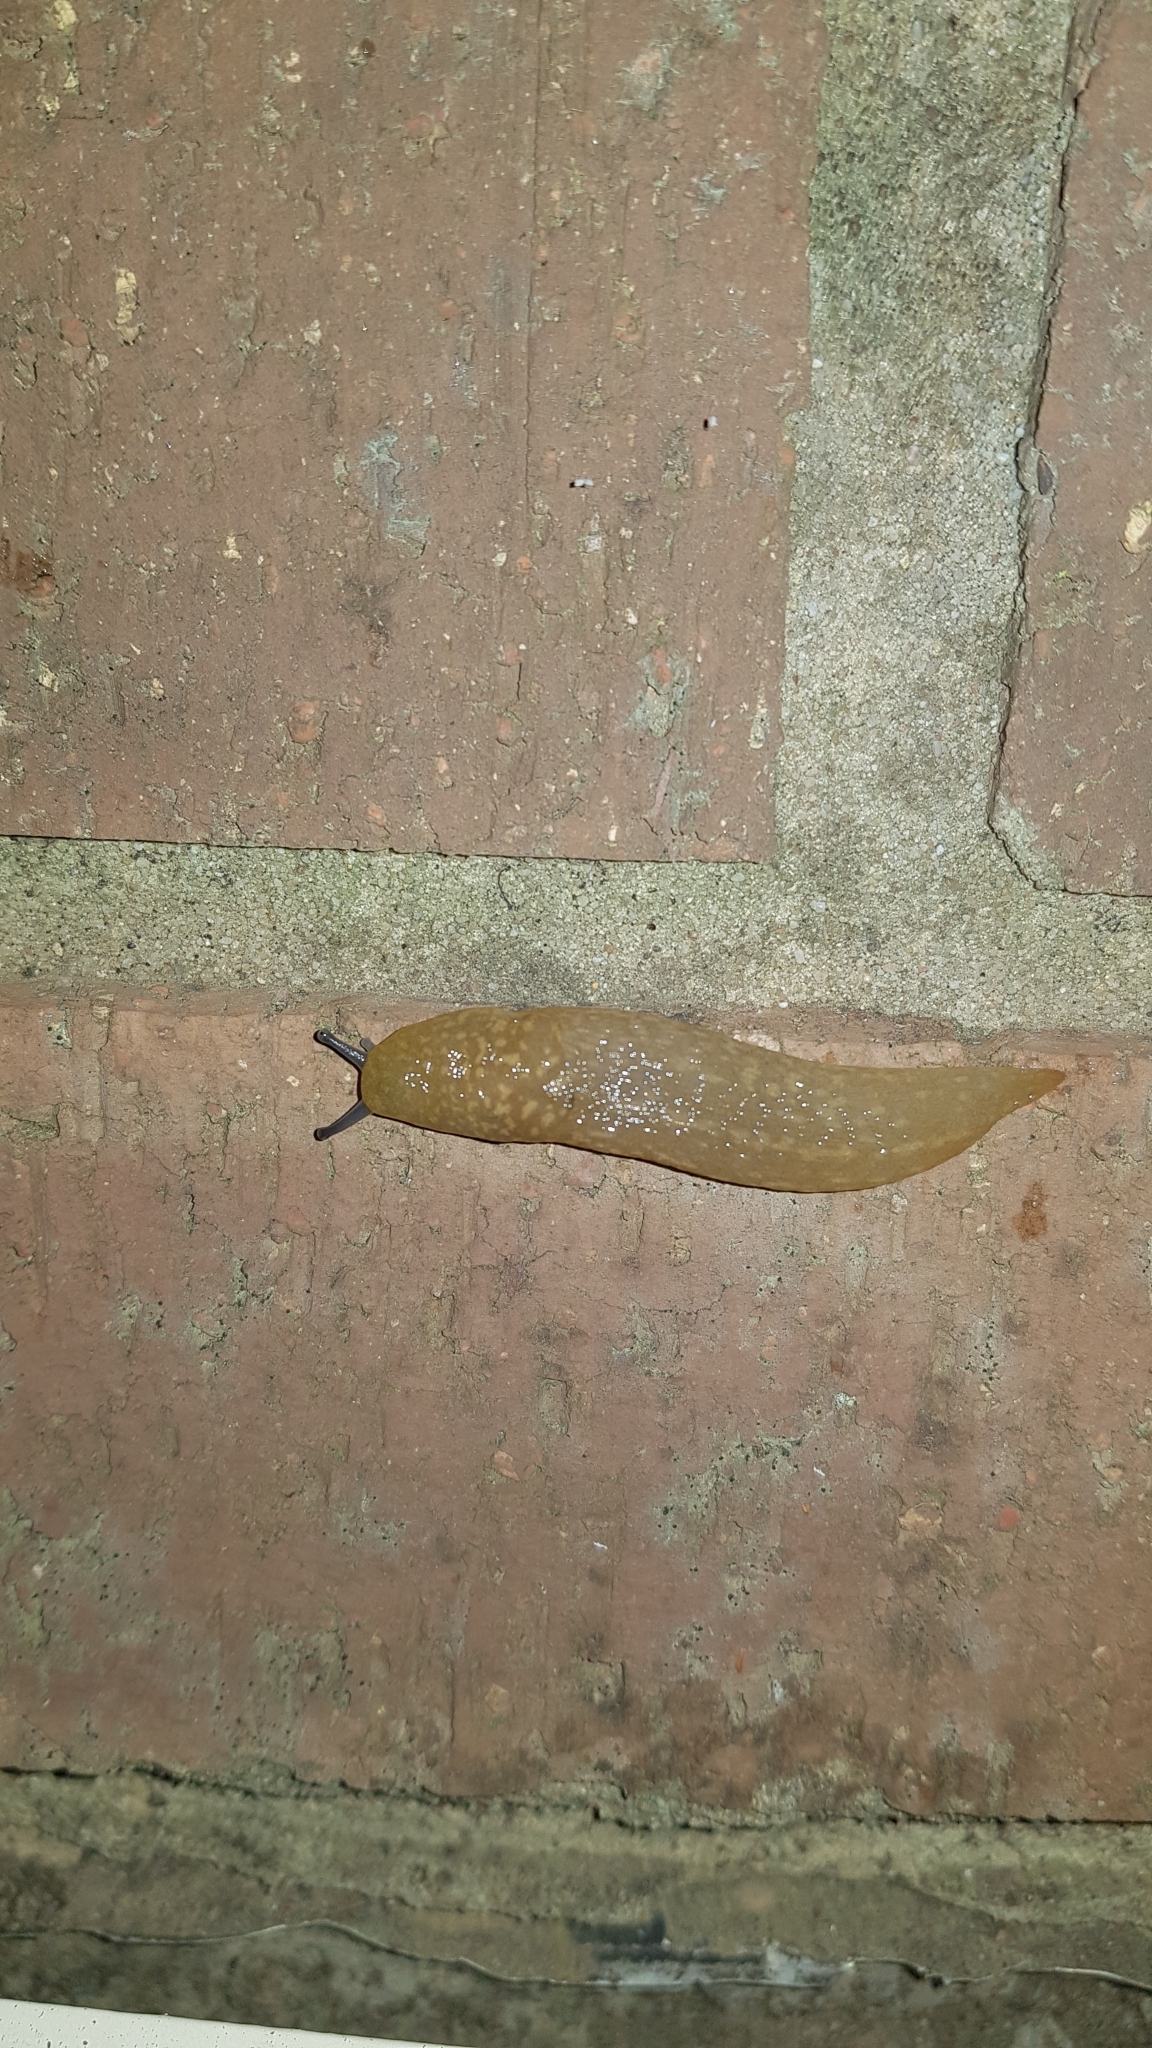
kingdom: Animalia
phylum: Mollusca
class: Gastropoda
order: Stylommatophora
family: Limacidae
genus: Limacus
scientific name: Limacus flavus
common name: Yellow gardenslug
